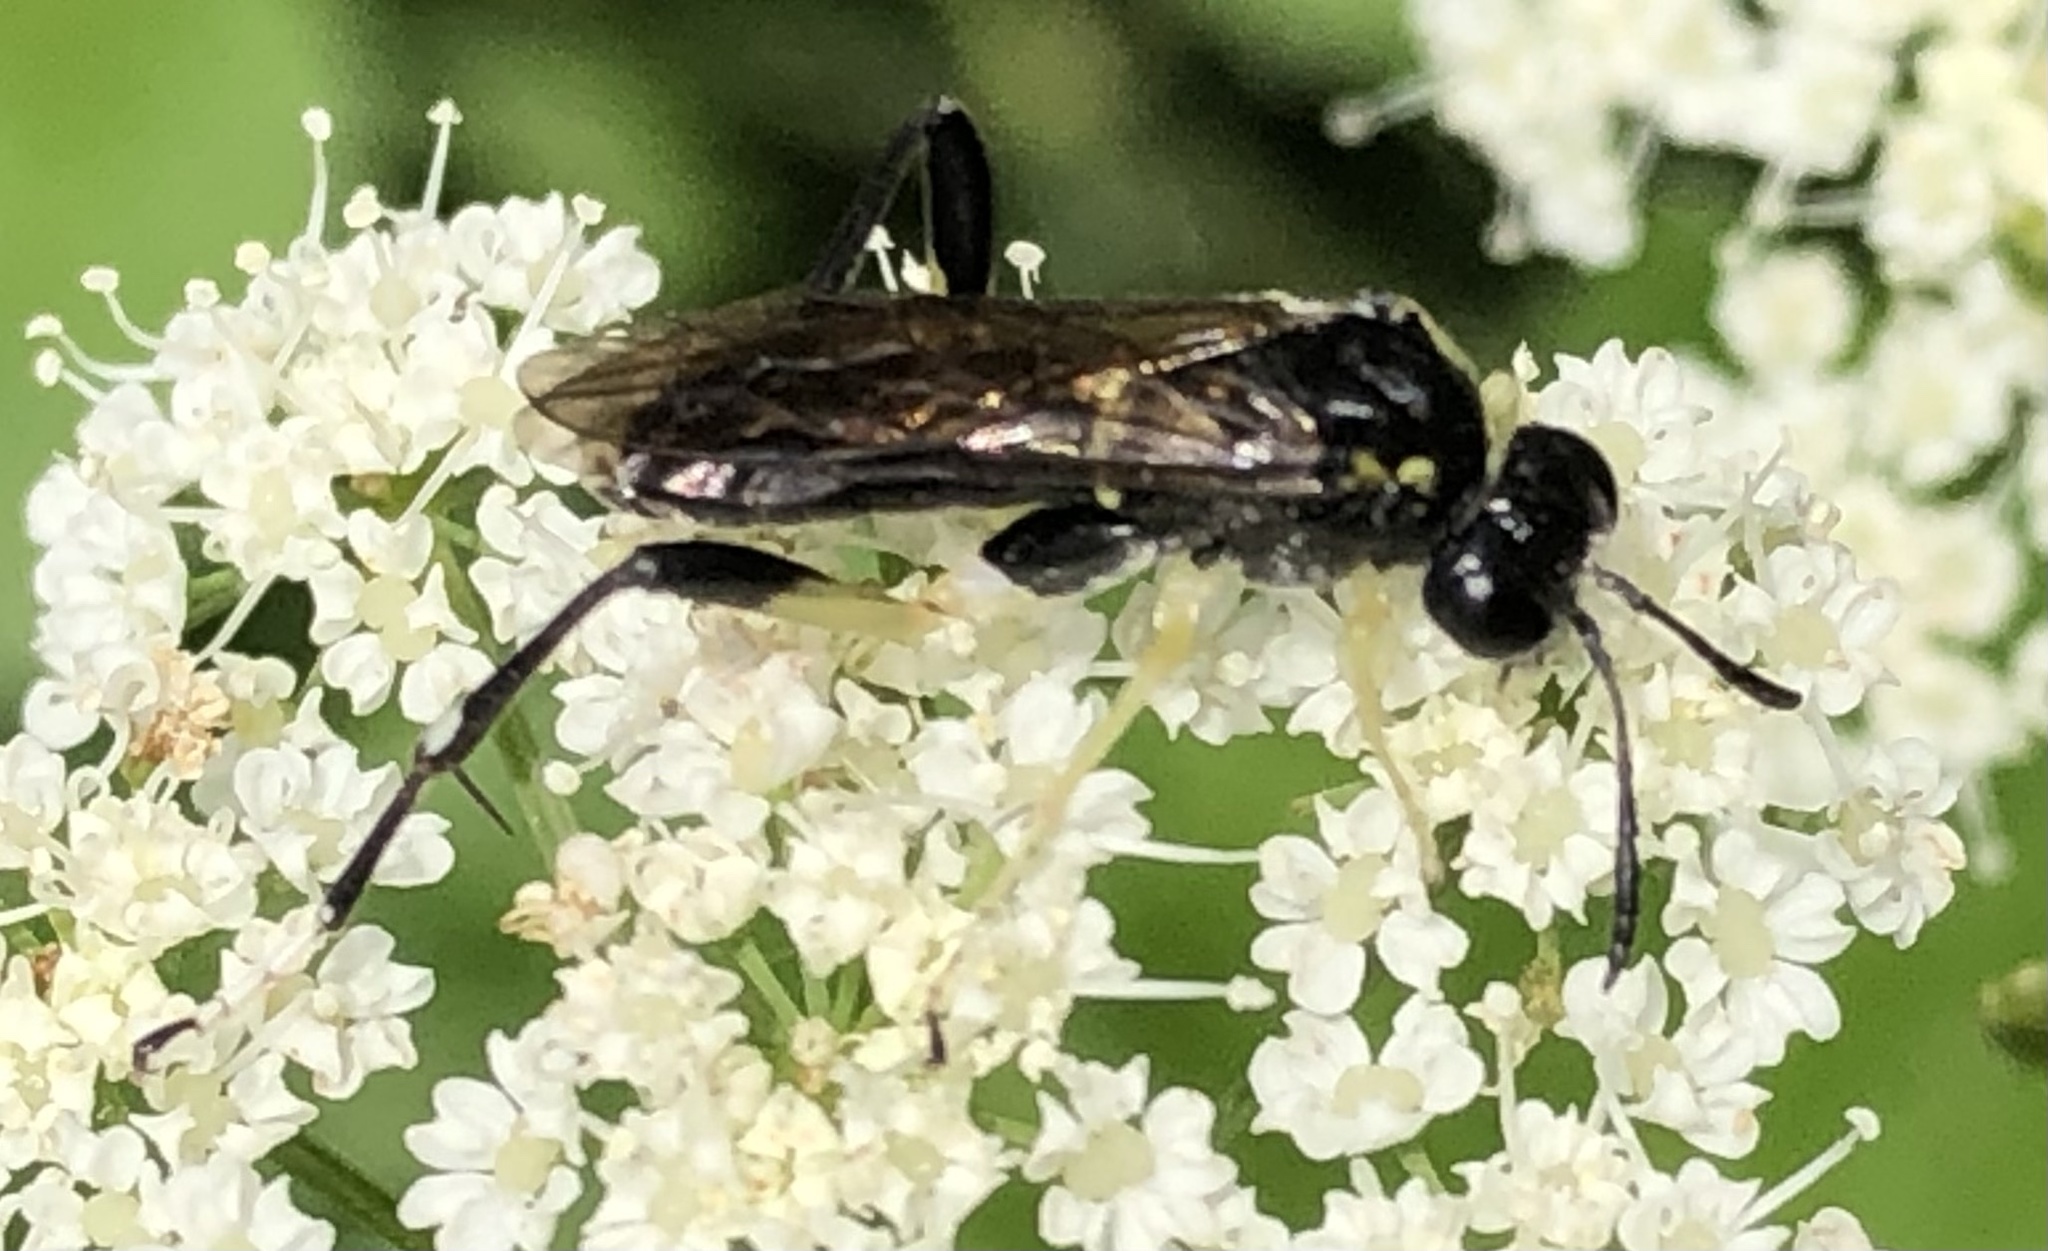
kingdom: Animalia
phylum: Arthropoda
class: Insecta
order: Hymenoptera
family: Tenthredinidae
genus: Macrophya
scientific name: Macrophya montana
